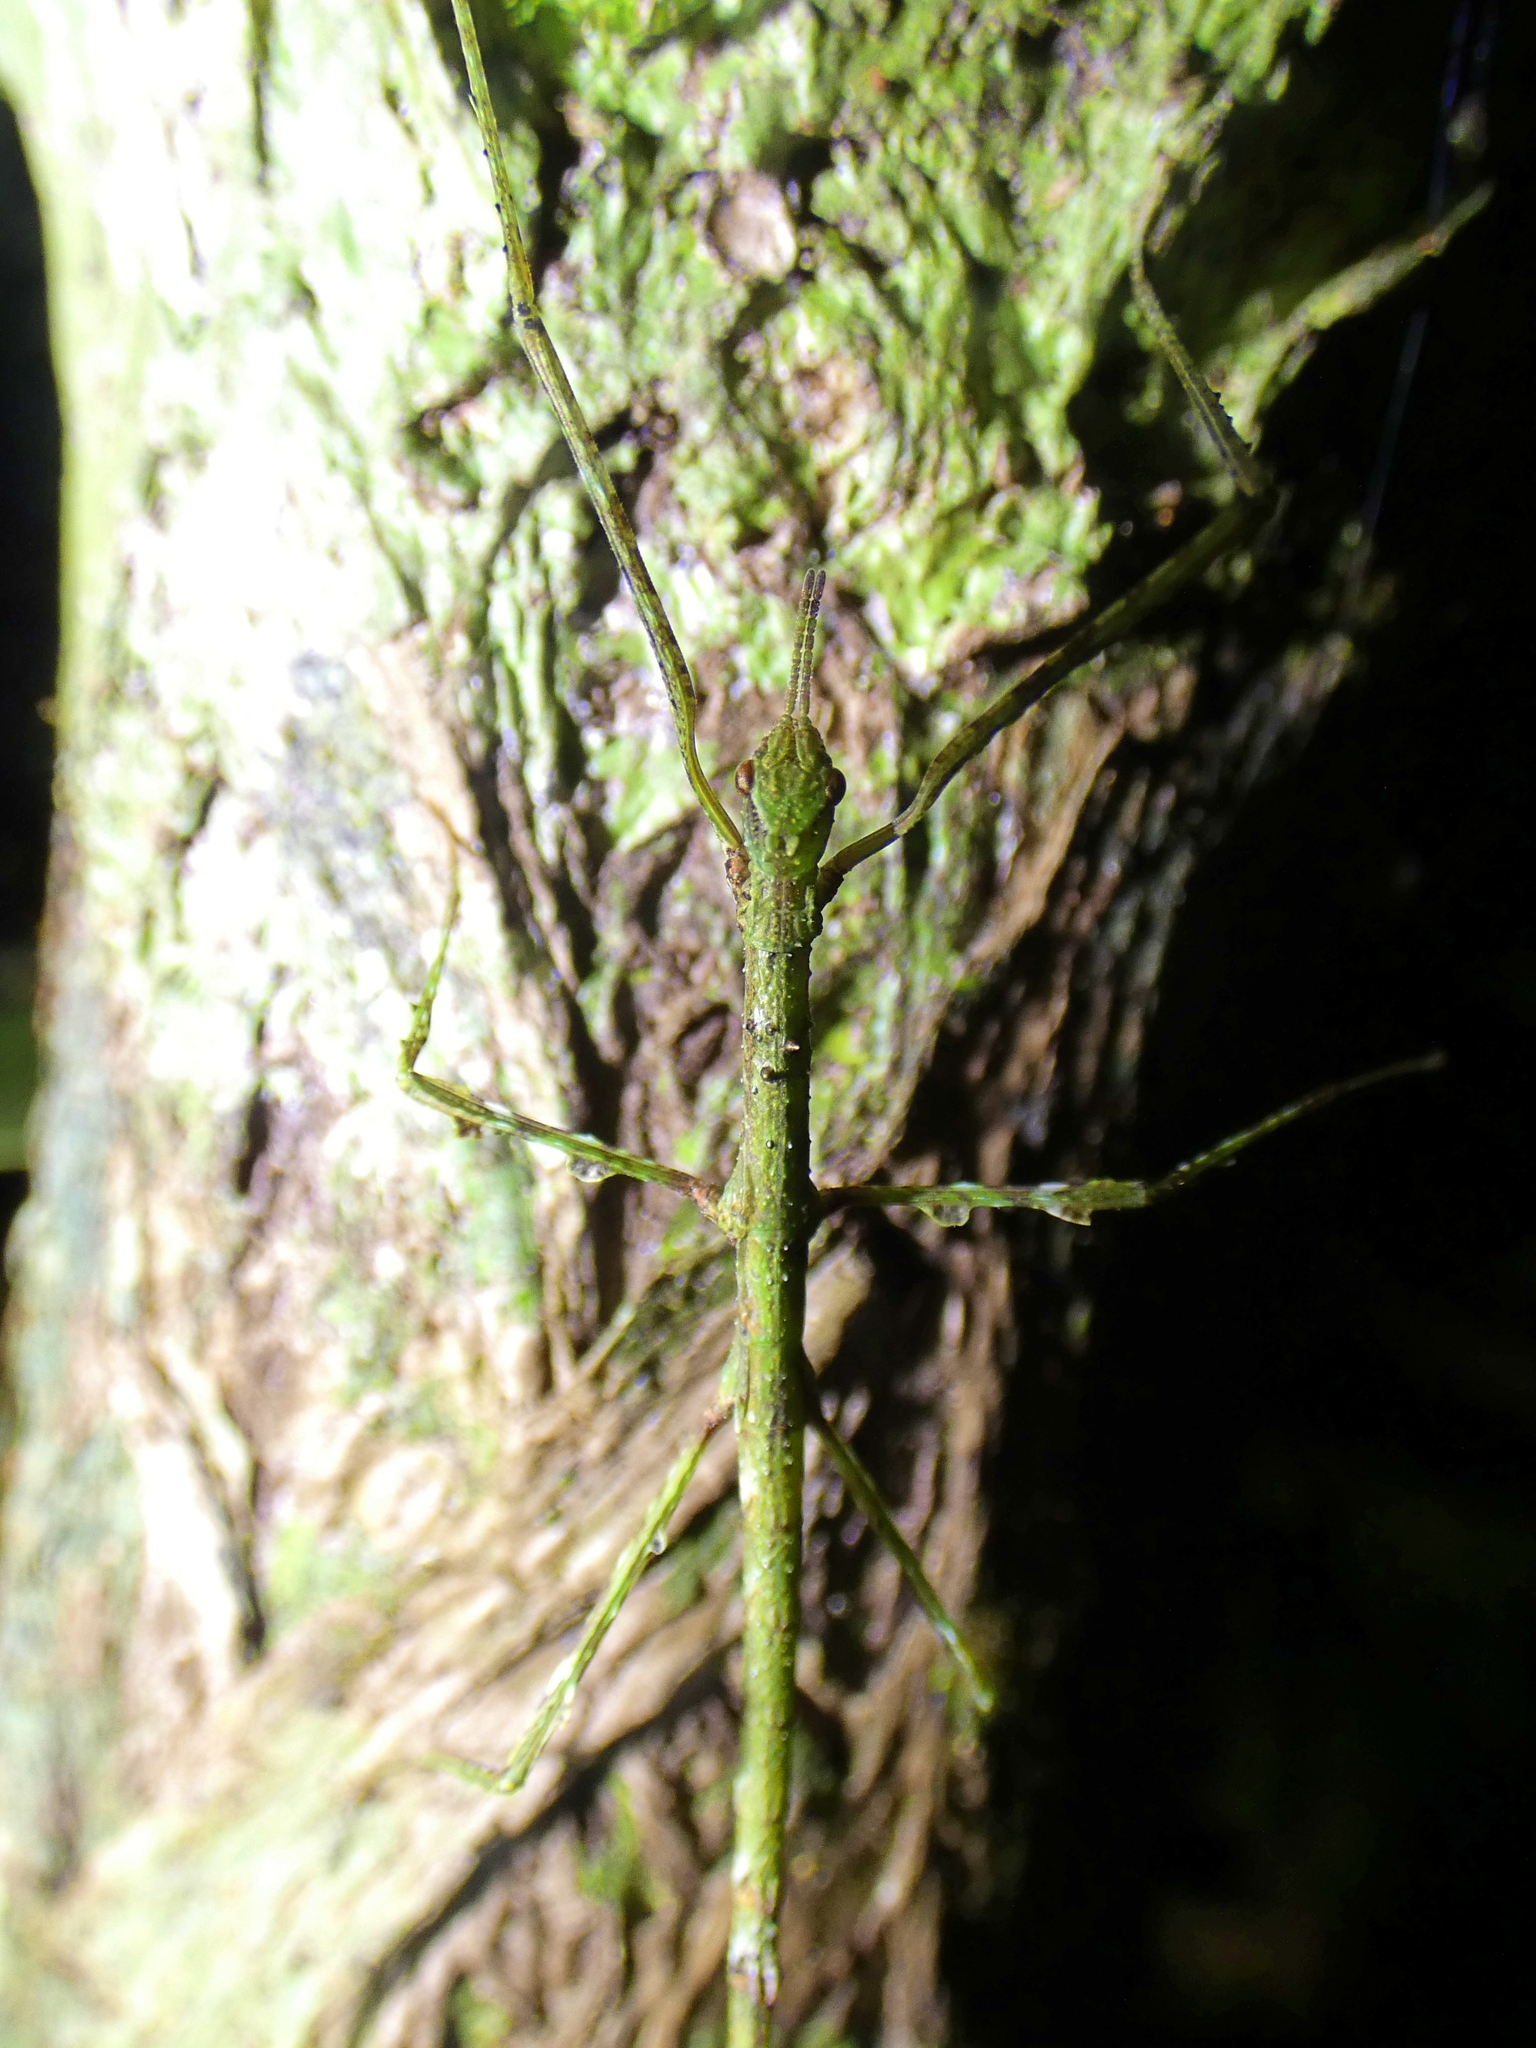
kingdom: Animalia
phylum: Arthropoda
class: Insecta
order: Phasmida
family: Phasmatidae
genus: Onchestus
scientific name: Onchestus rentzi
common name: Rentz's stick-insect
